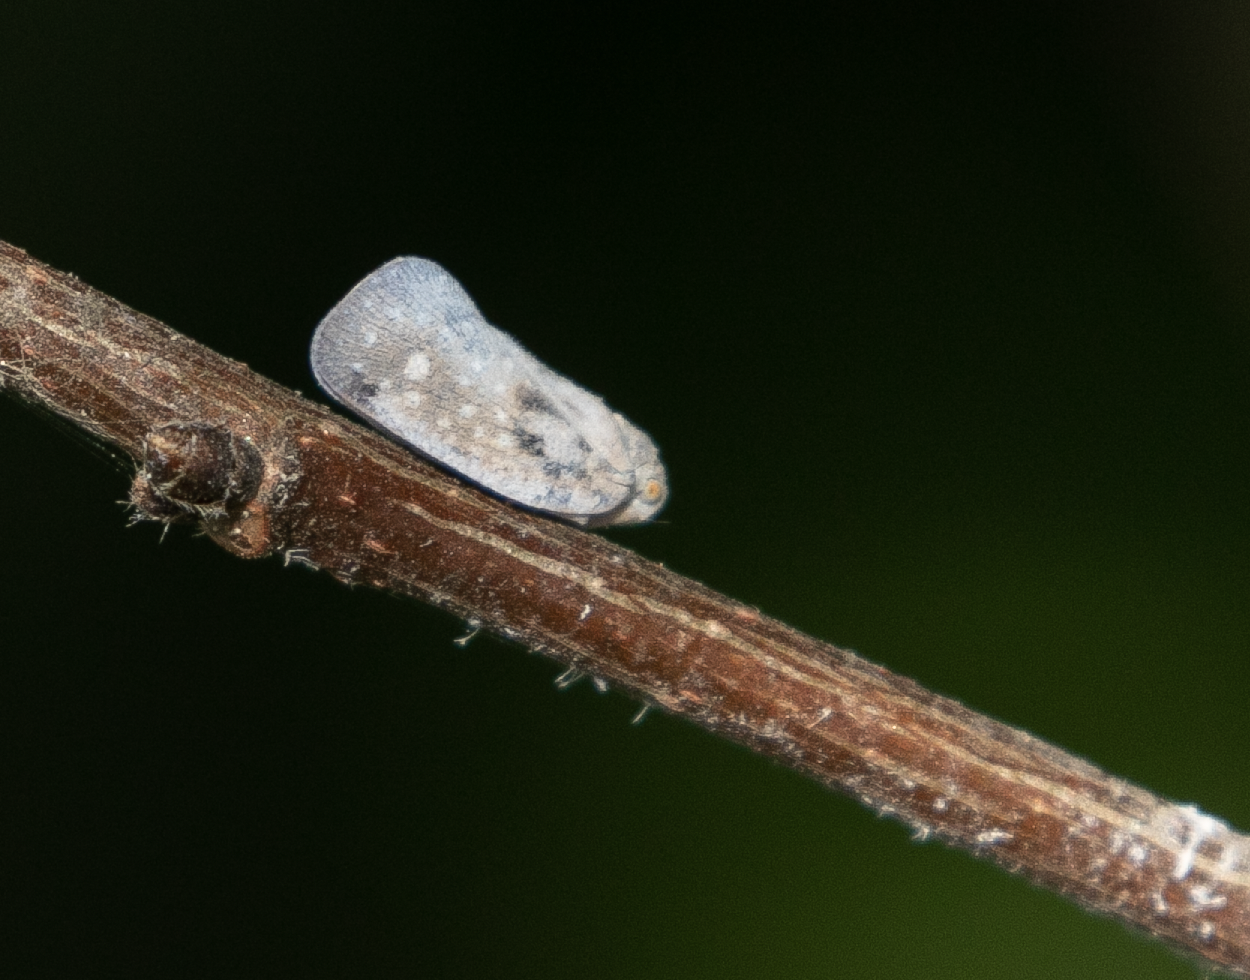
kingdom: Animalia
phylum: Arthropoda
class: Insecta
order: Hemiptera
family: Flatidae
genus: Metcalfa
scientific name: Metcalfa pruinosa
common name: Citrus flatid planthopper
